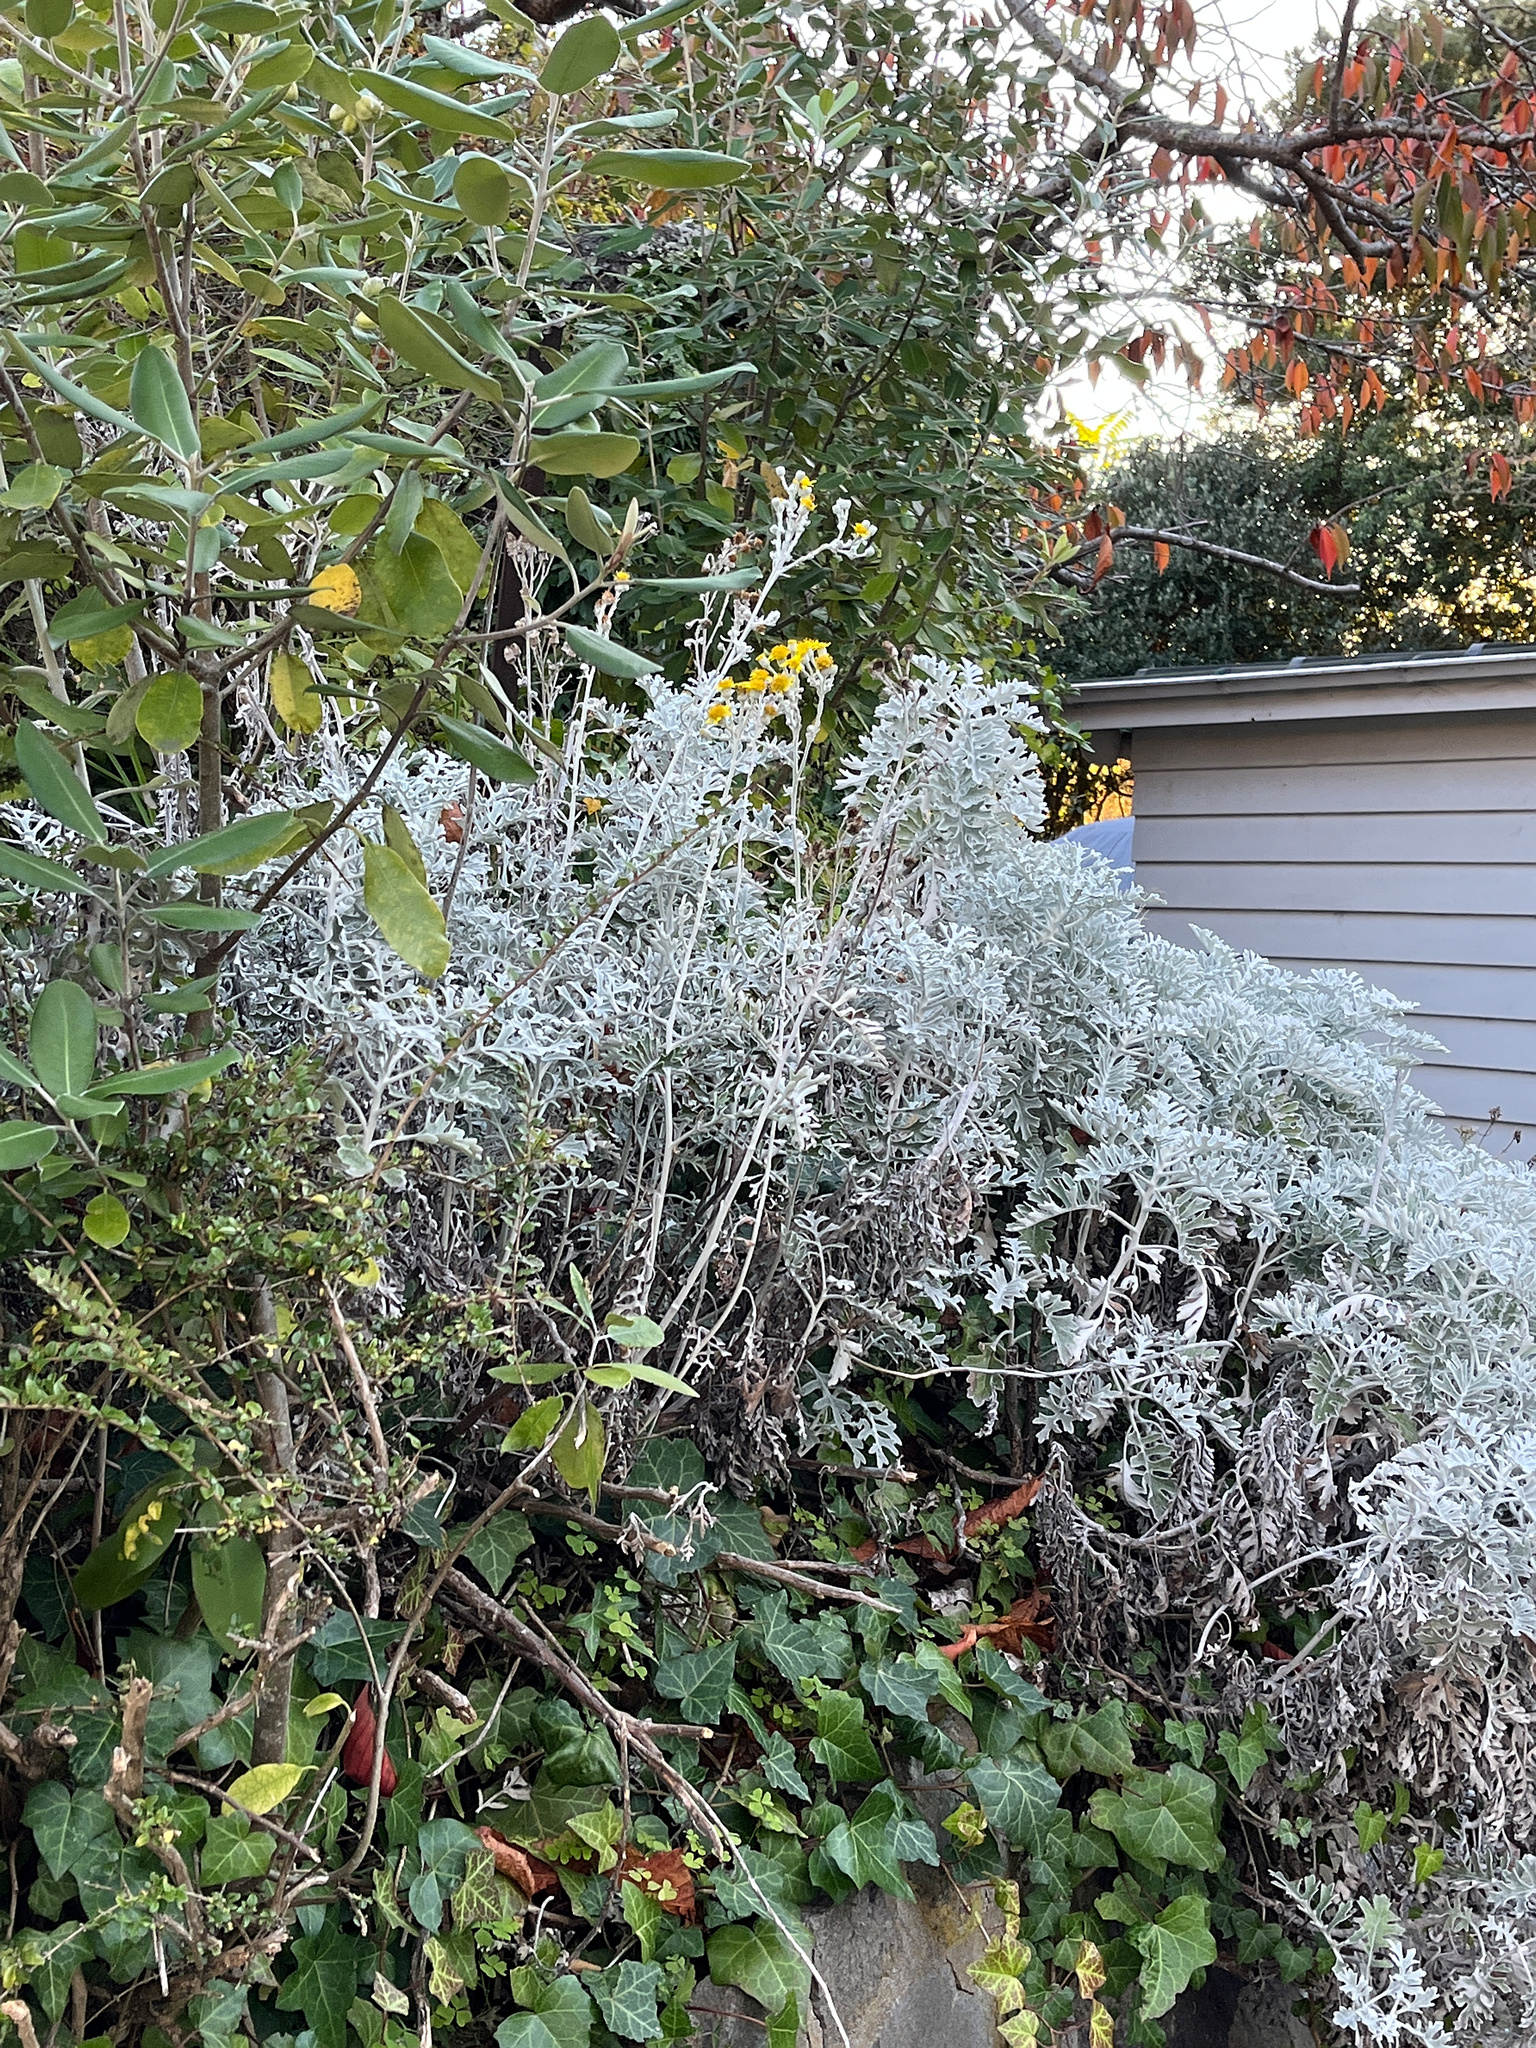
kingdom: Plantae
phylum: Tracheophyta
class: Magnoliopsida
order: Asterales
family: Asteraceae
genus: Jacobaea
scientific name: Jacobaea maritima
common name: Silver ragwort
